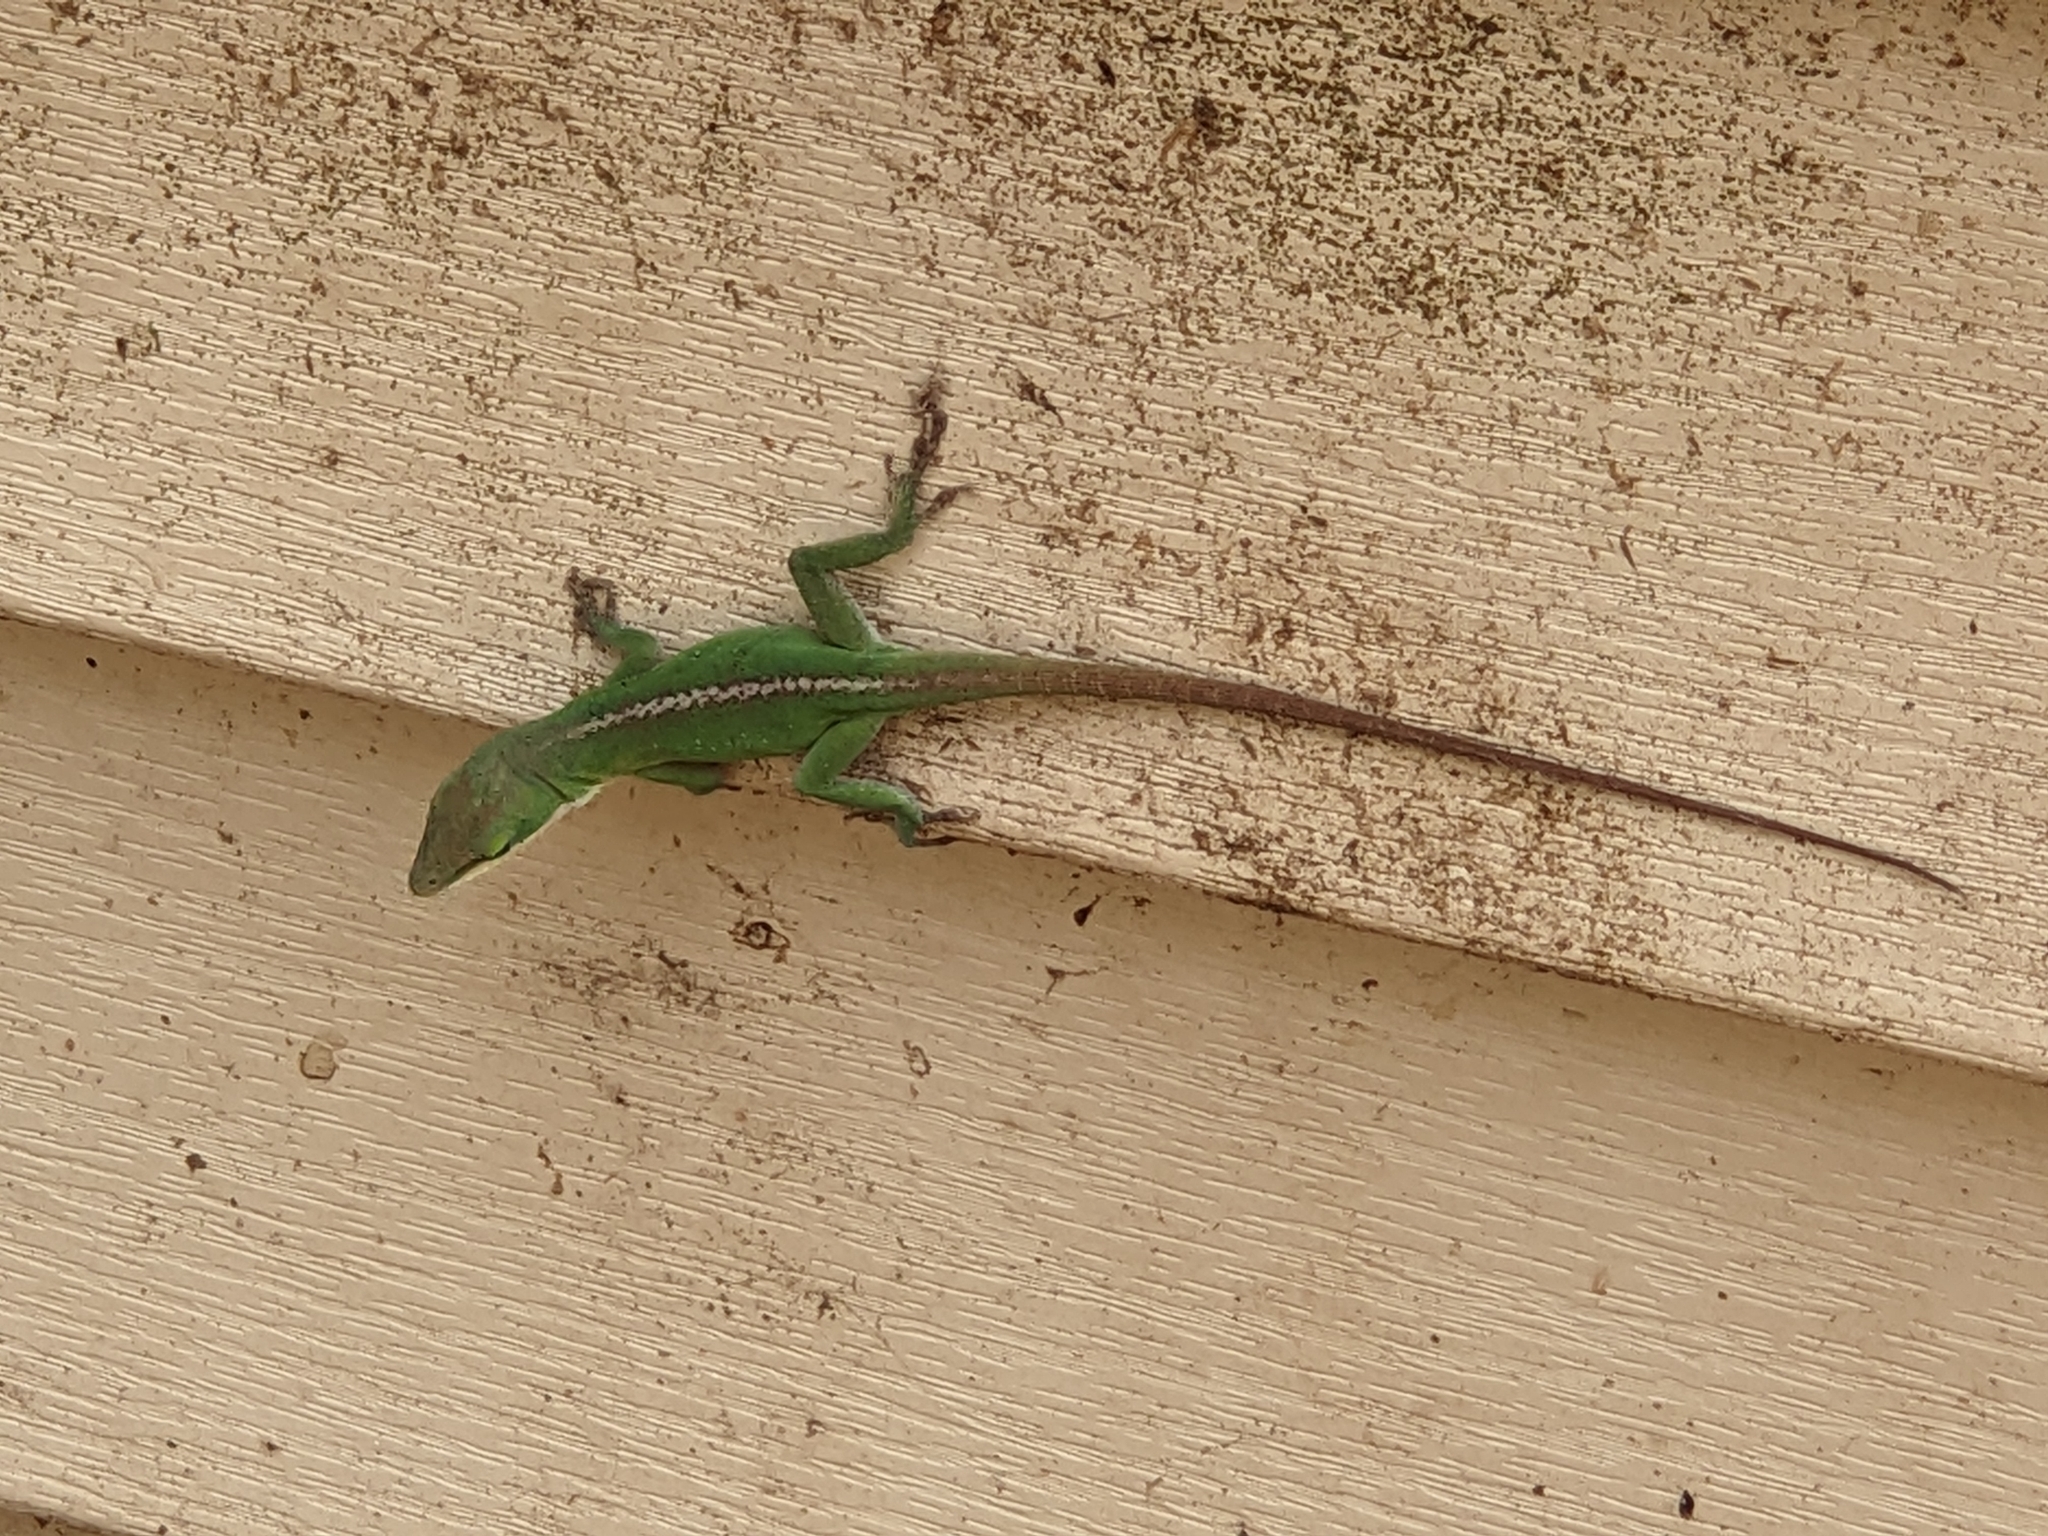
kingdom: Animalia
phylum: Chordata
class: Squamata
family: Dactyloidae
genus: Anolis
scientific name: Anolis carolinensis
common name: Green anole
